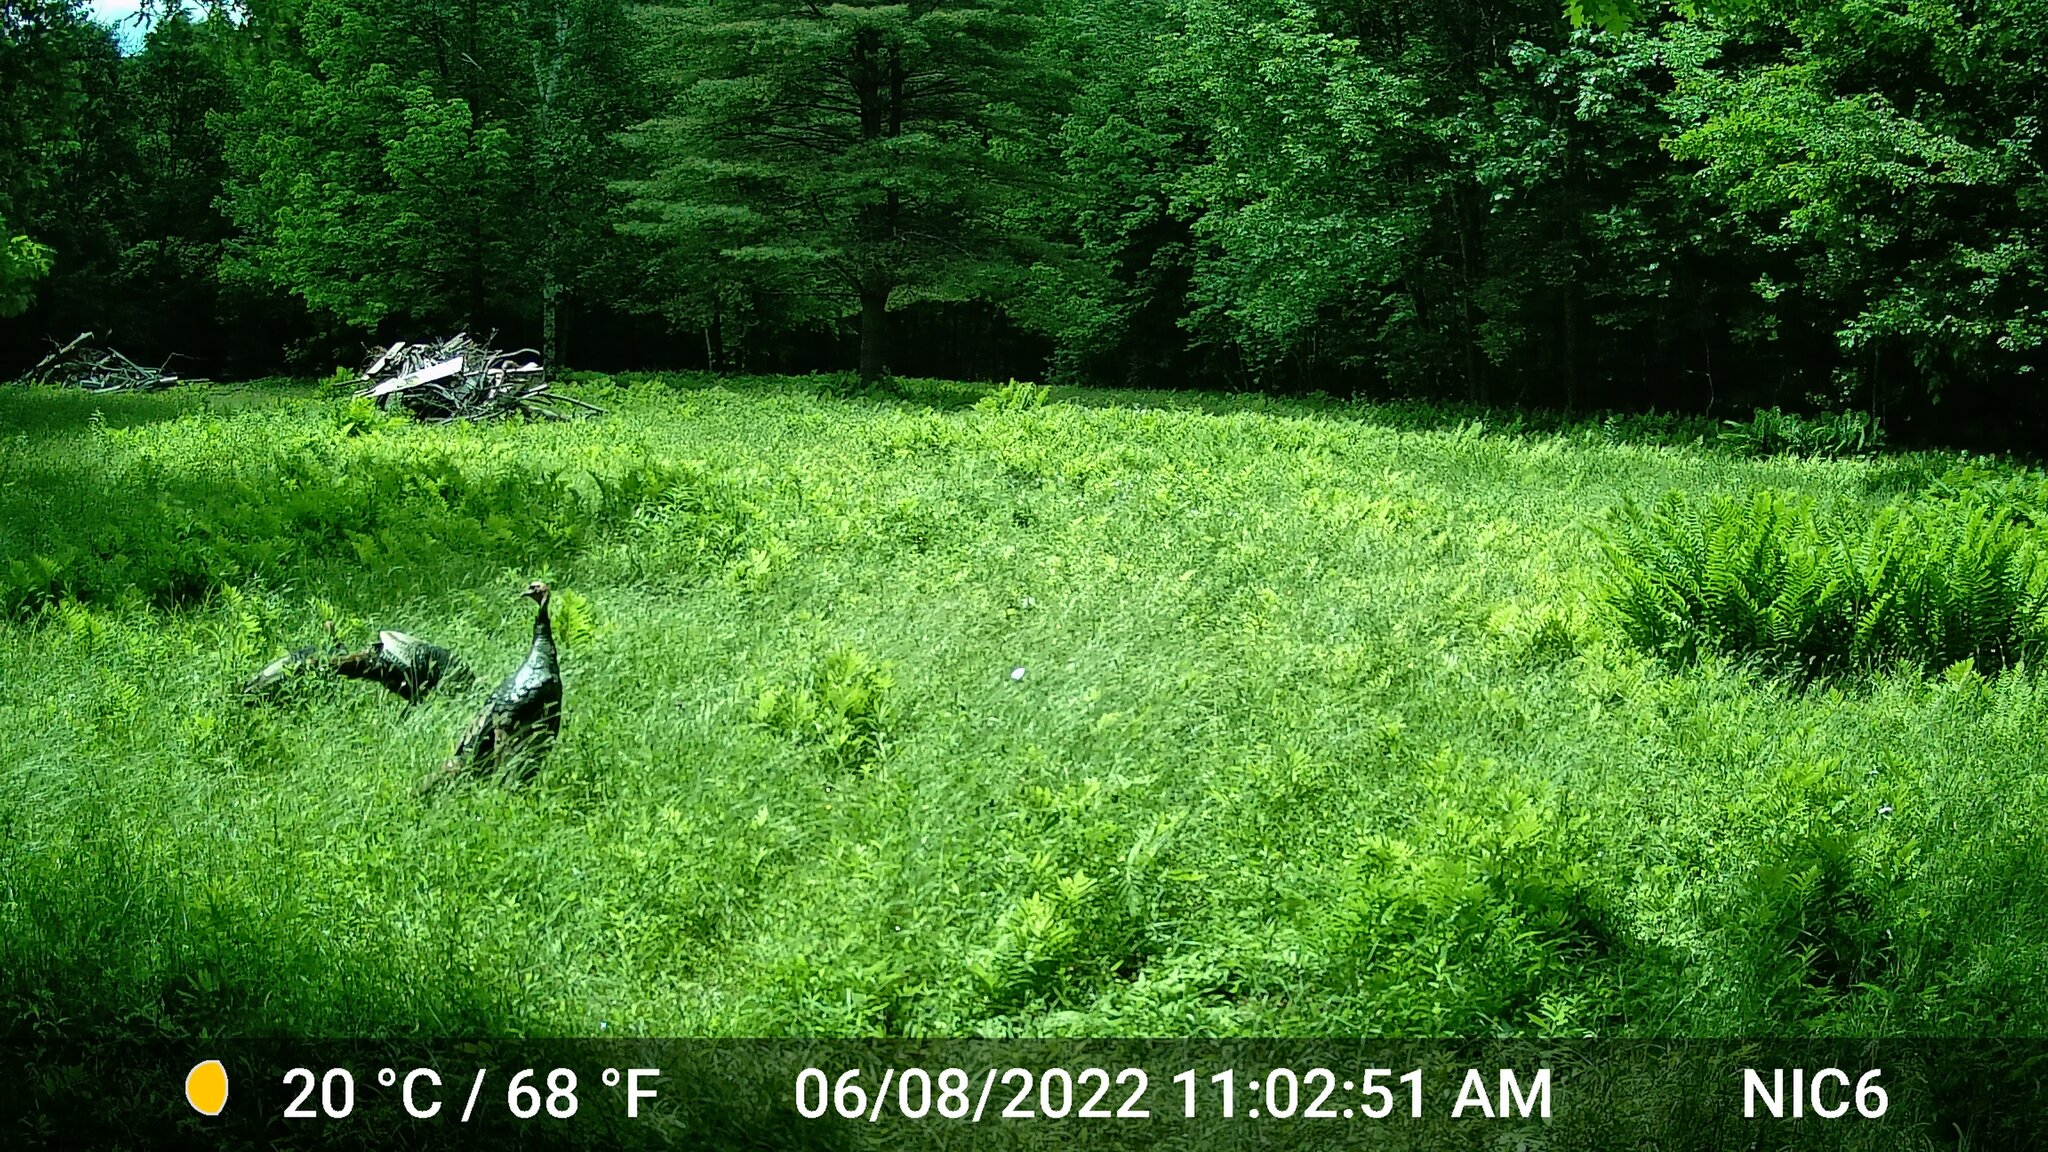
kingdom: Animalia
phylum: Chordata
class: Aves
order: Galliformes
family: Phasianidae
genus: Meleagris
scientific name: Meleagris gallopavo
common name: Wild turkey
